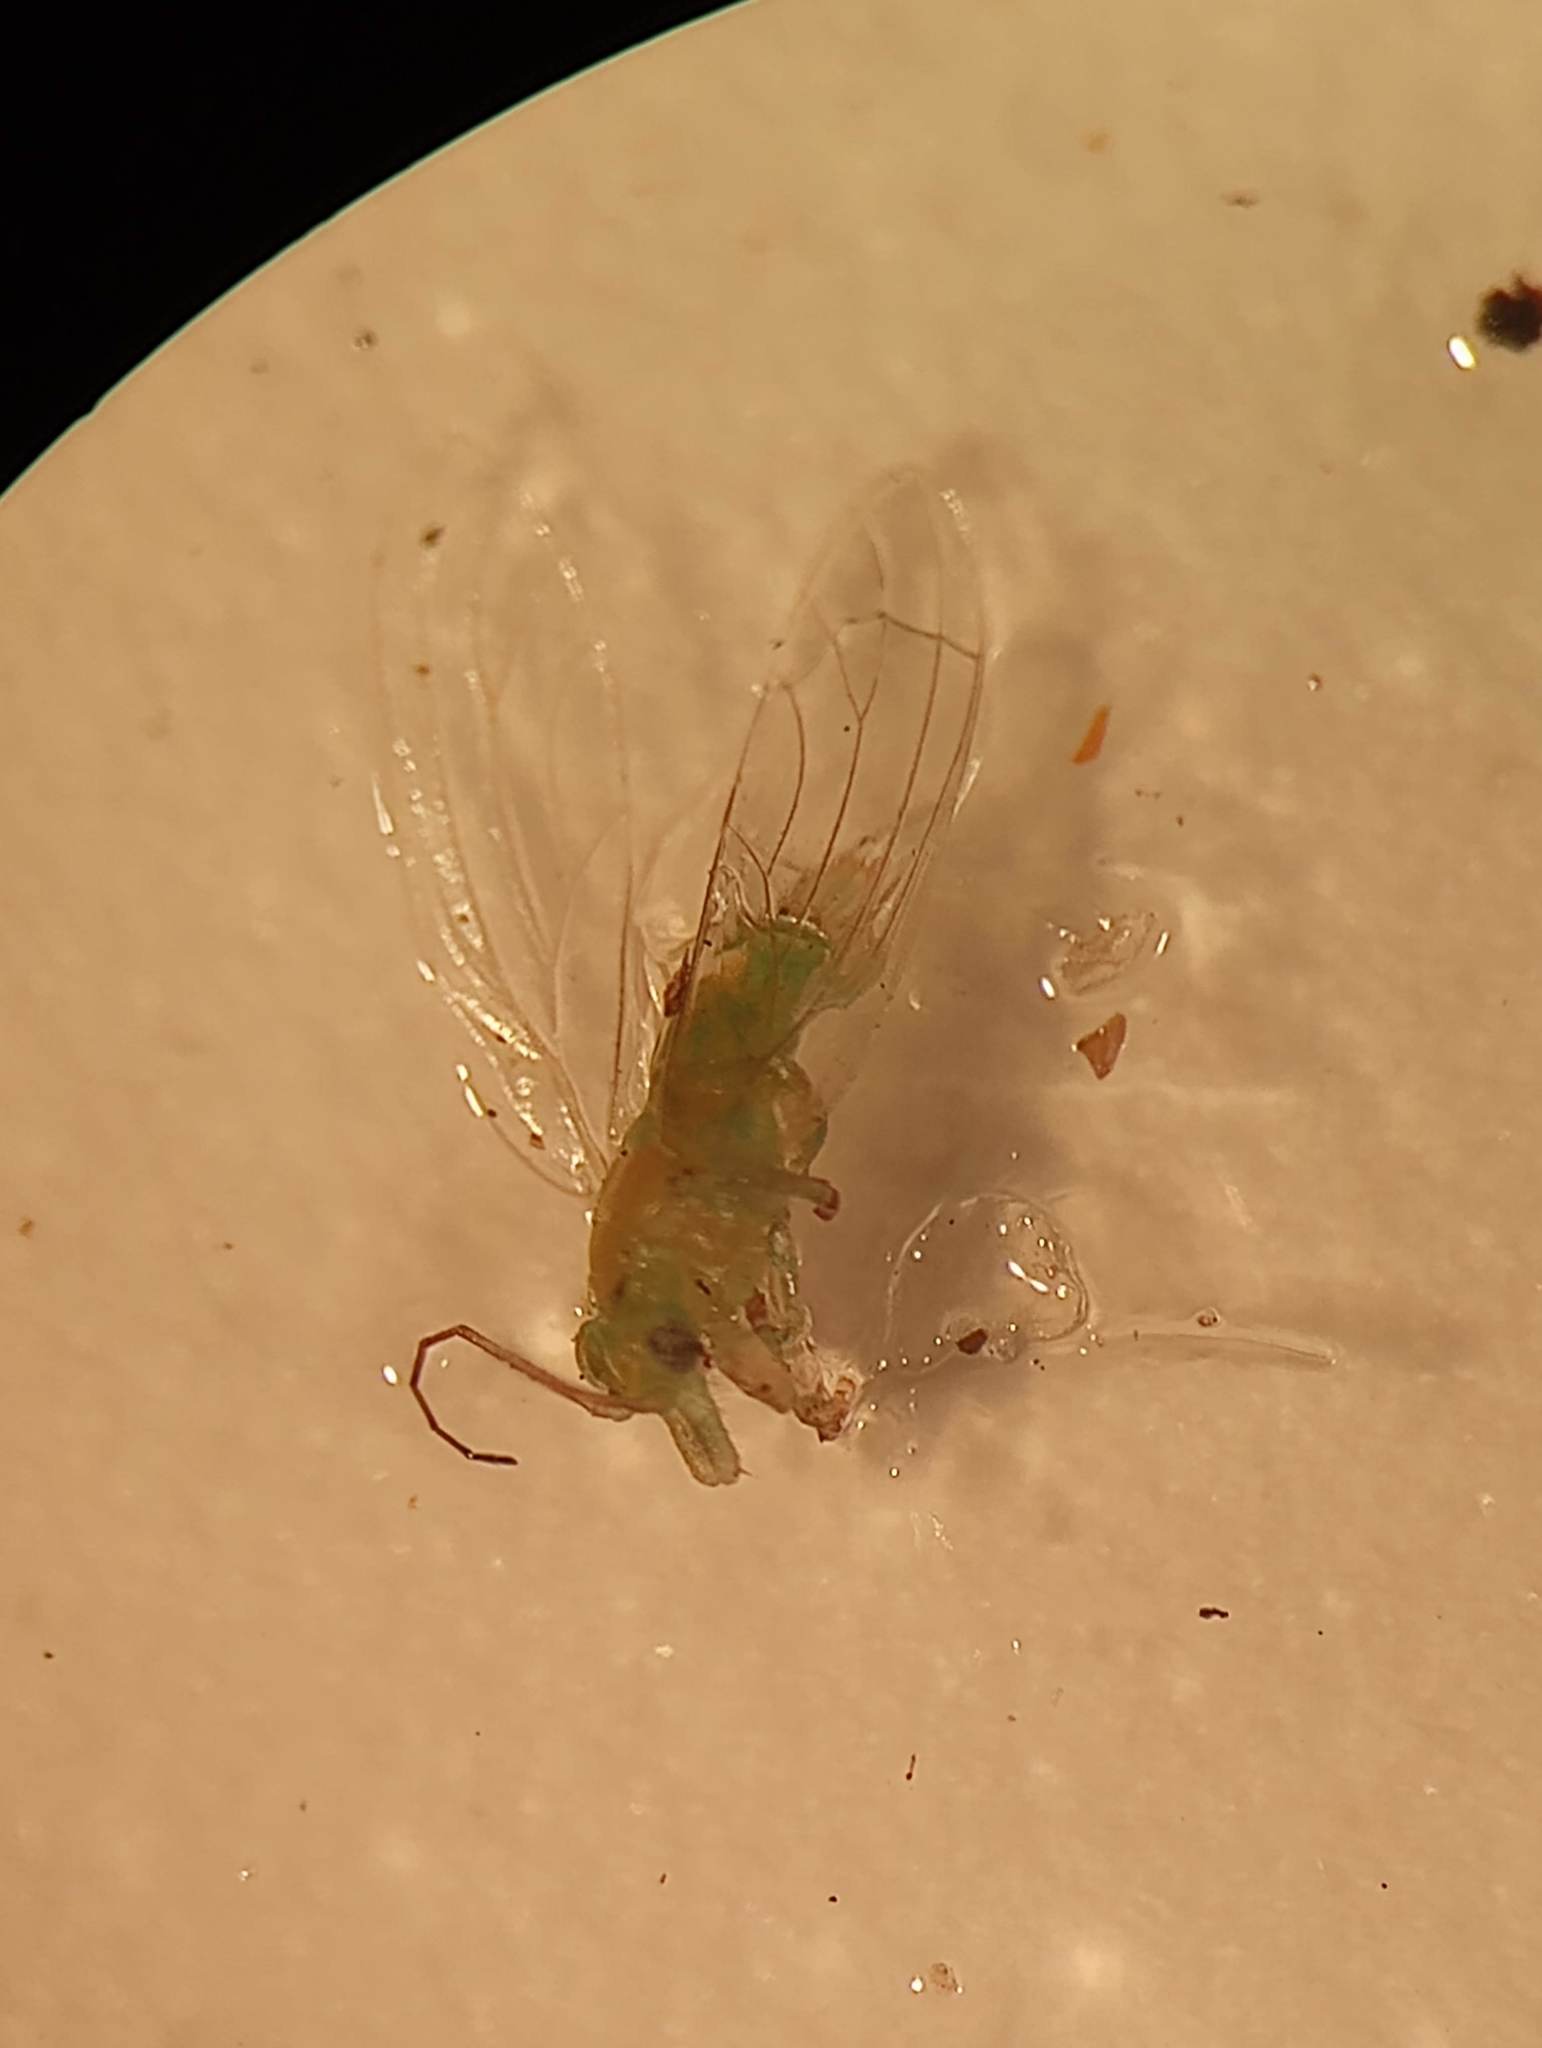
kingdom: Animalia
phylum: Arthropoda
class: Insecta
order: Hemiptera
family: Aphalaridae
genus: Glycaspis
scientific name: Glycaspis brimblecombei
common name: Red gum lerp psyllid
